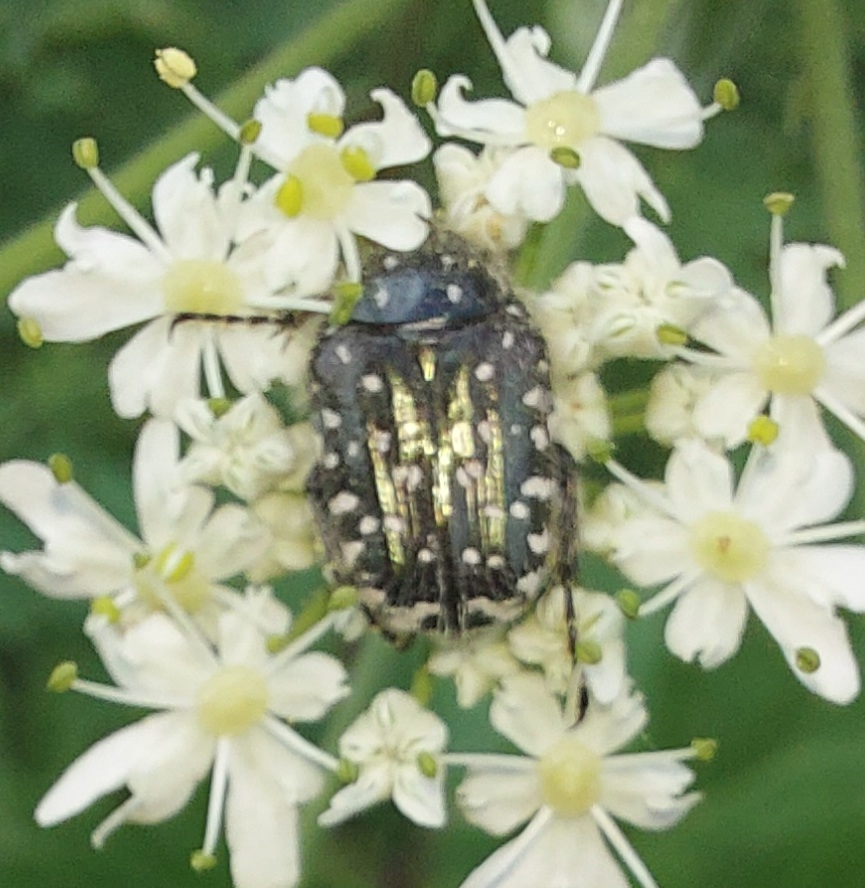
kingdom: Animalia
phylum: Arthropoda
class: Insecta
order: Coleoptera
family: Scarabaeidae
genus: Oxythyrea
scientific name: Oxythyrea funesta
